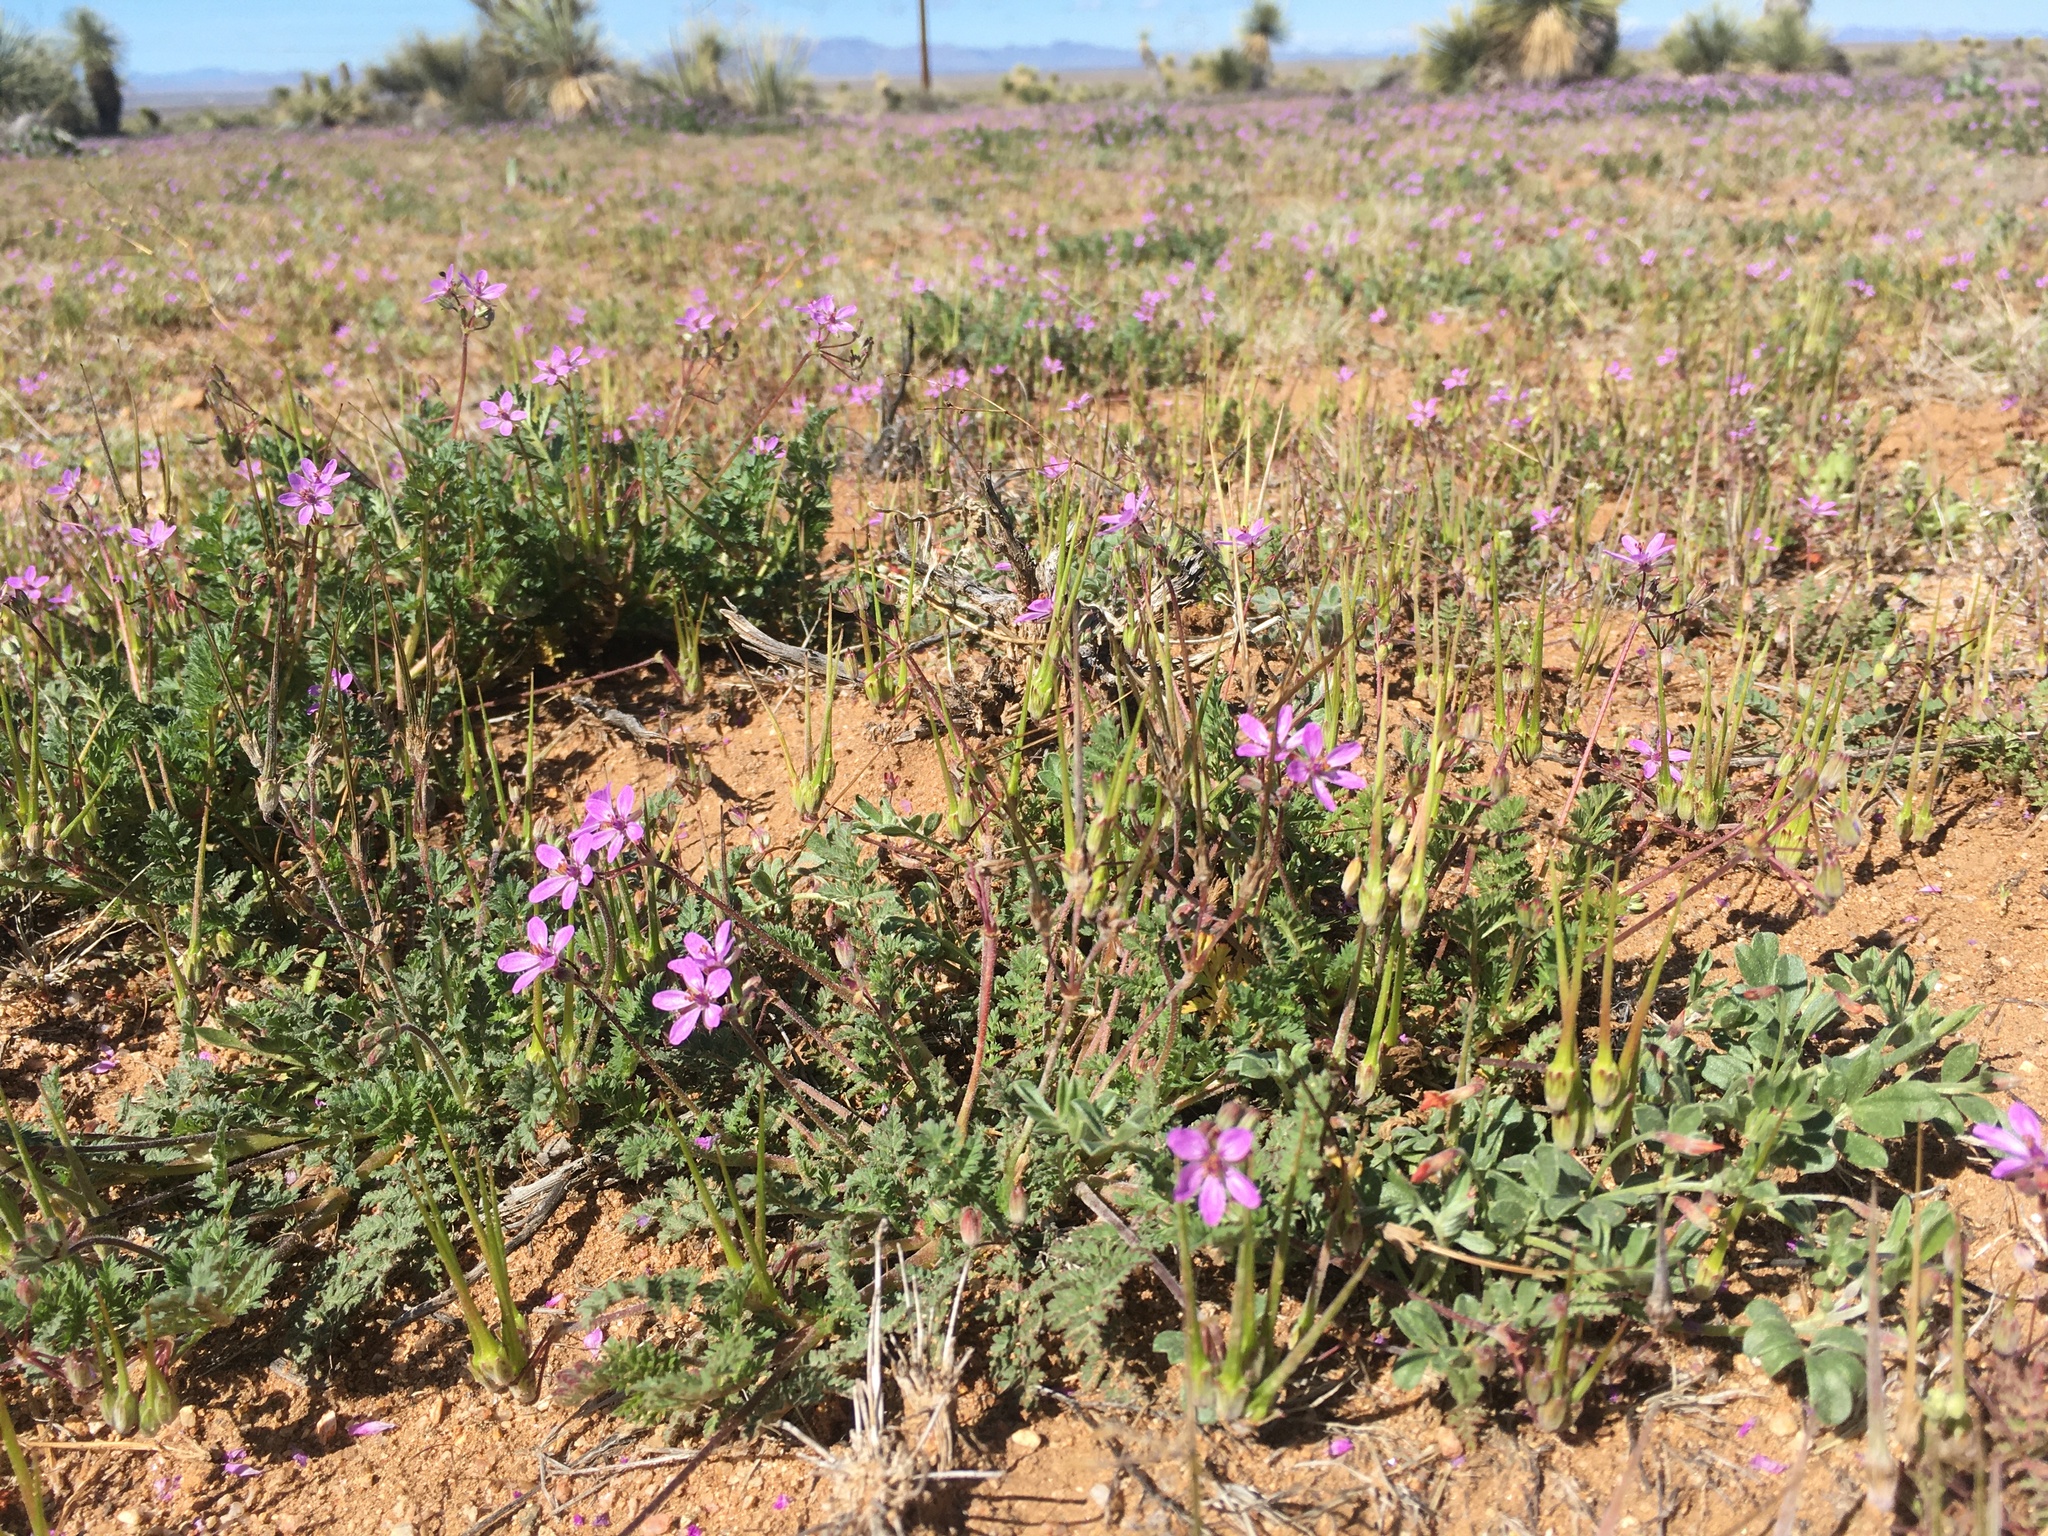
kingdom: Plantae
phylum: Tracheophyta
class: Magnoliopsida
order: Geraniales
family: Geraniaceae
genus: Erodium
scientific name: Erodium cicutarium
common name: Common stork's-bill
